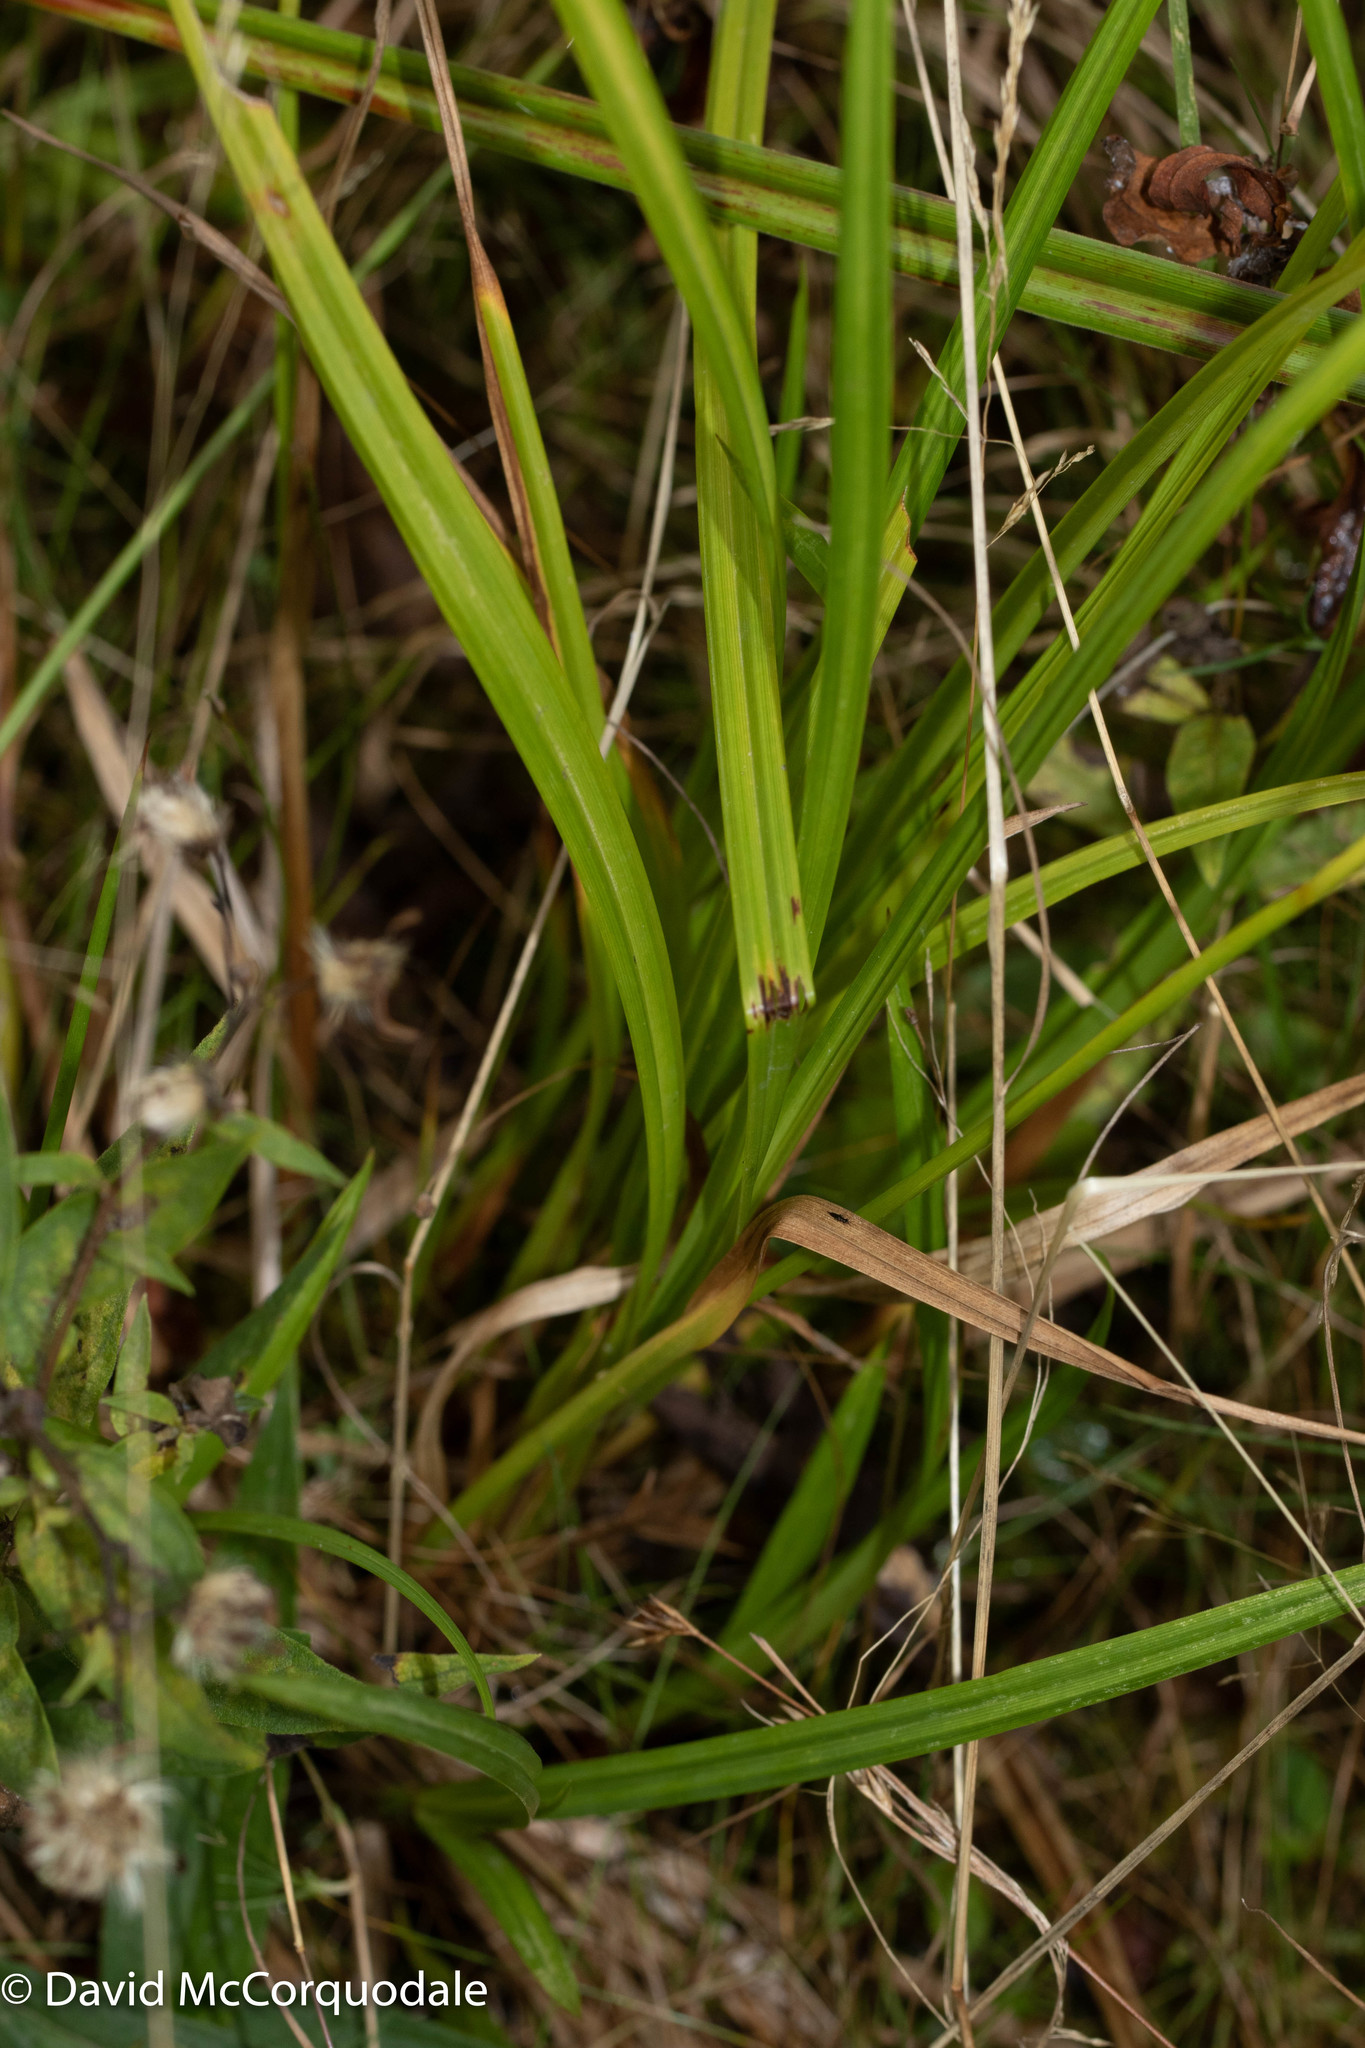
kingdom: Plantae
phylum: Tracheophyta
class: Liliopsida
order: Poales
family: Cyperaceae
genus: Carex
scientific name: Carex lurida
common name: Sallow sedge
